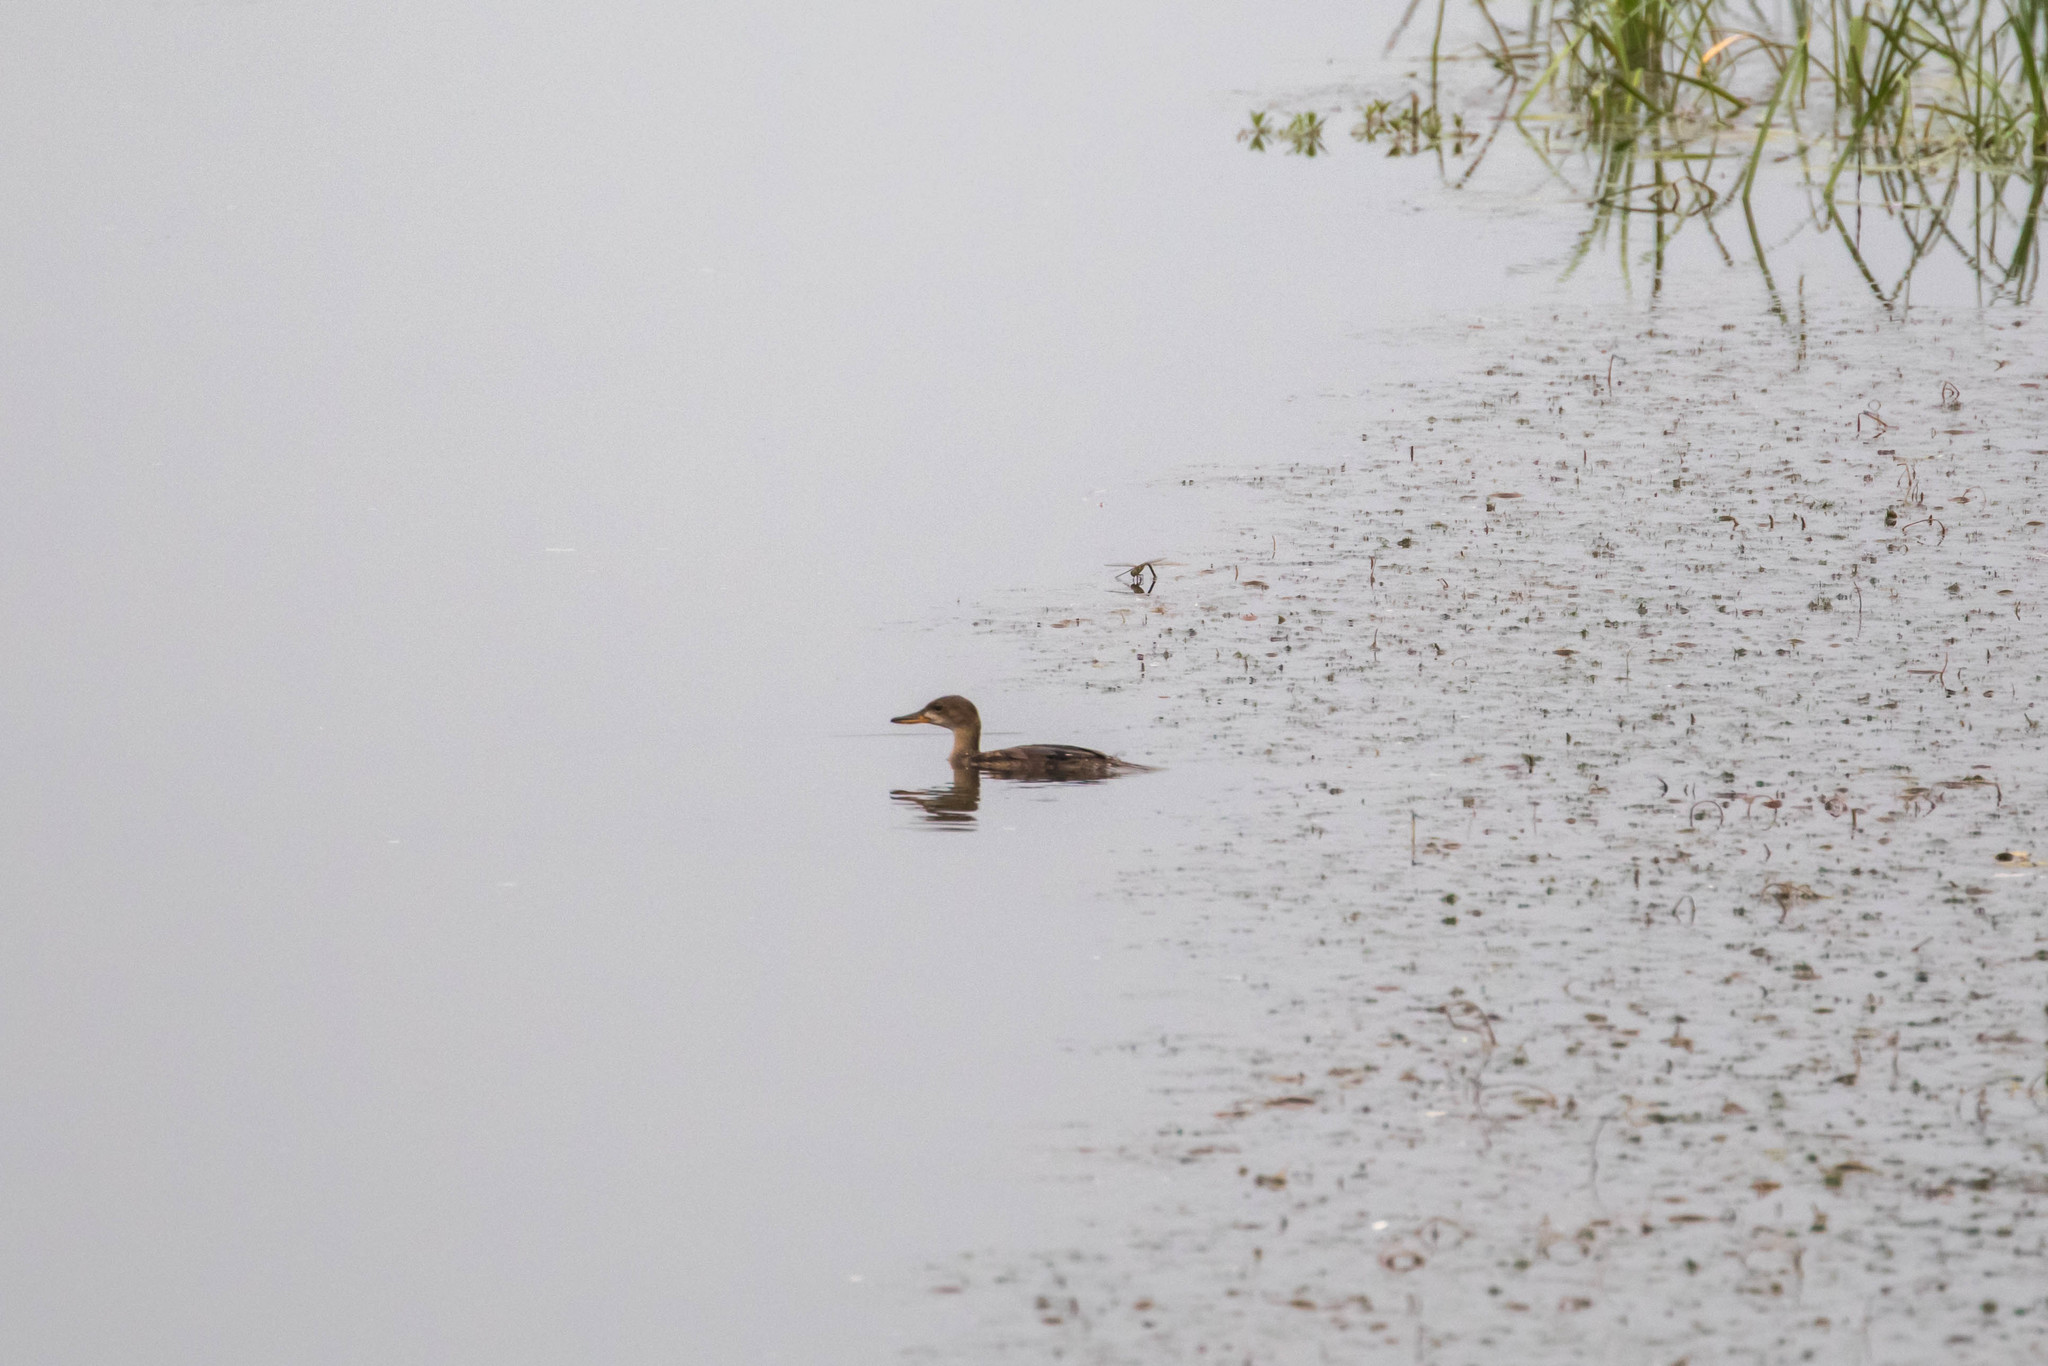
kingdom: Animalia
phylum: Chordata
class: Aves
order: Anseriformes
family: Anatidae
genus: Lophodytes
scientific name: Lophodytes cucullatus
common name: Hooded merganser
